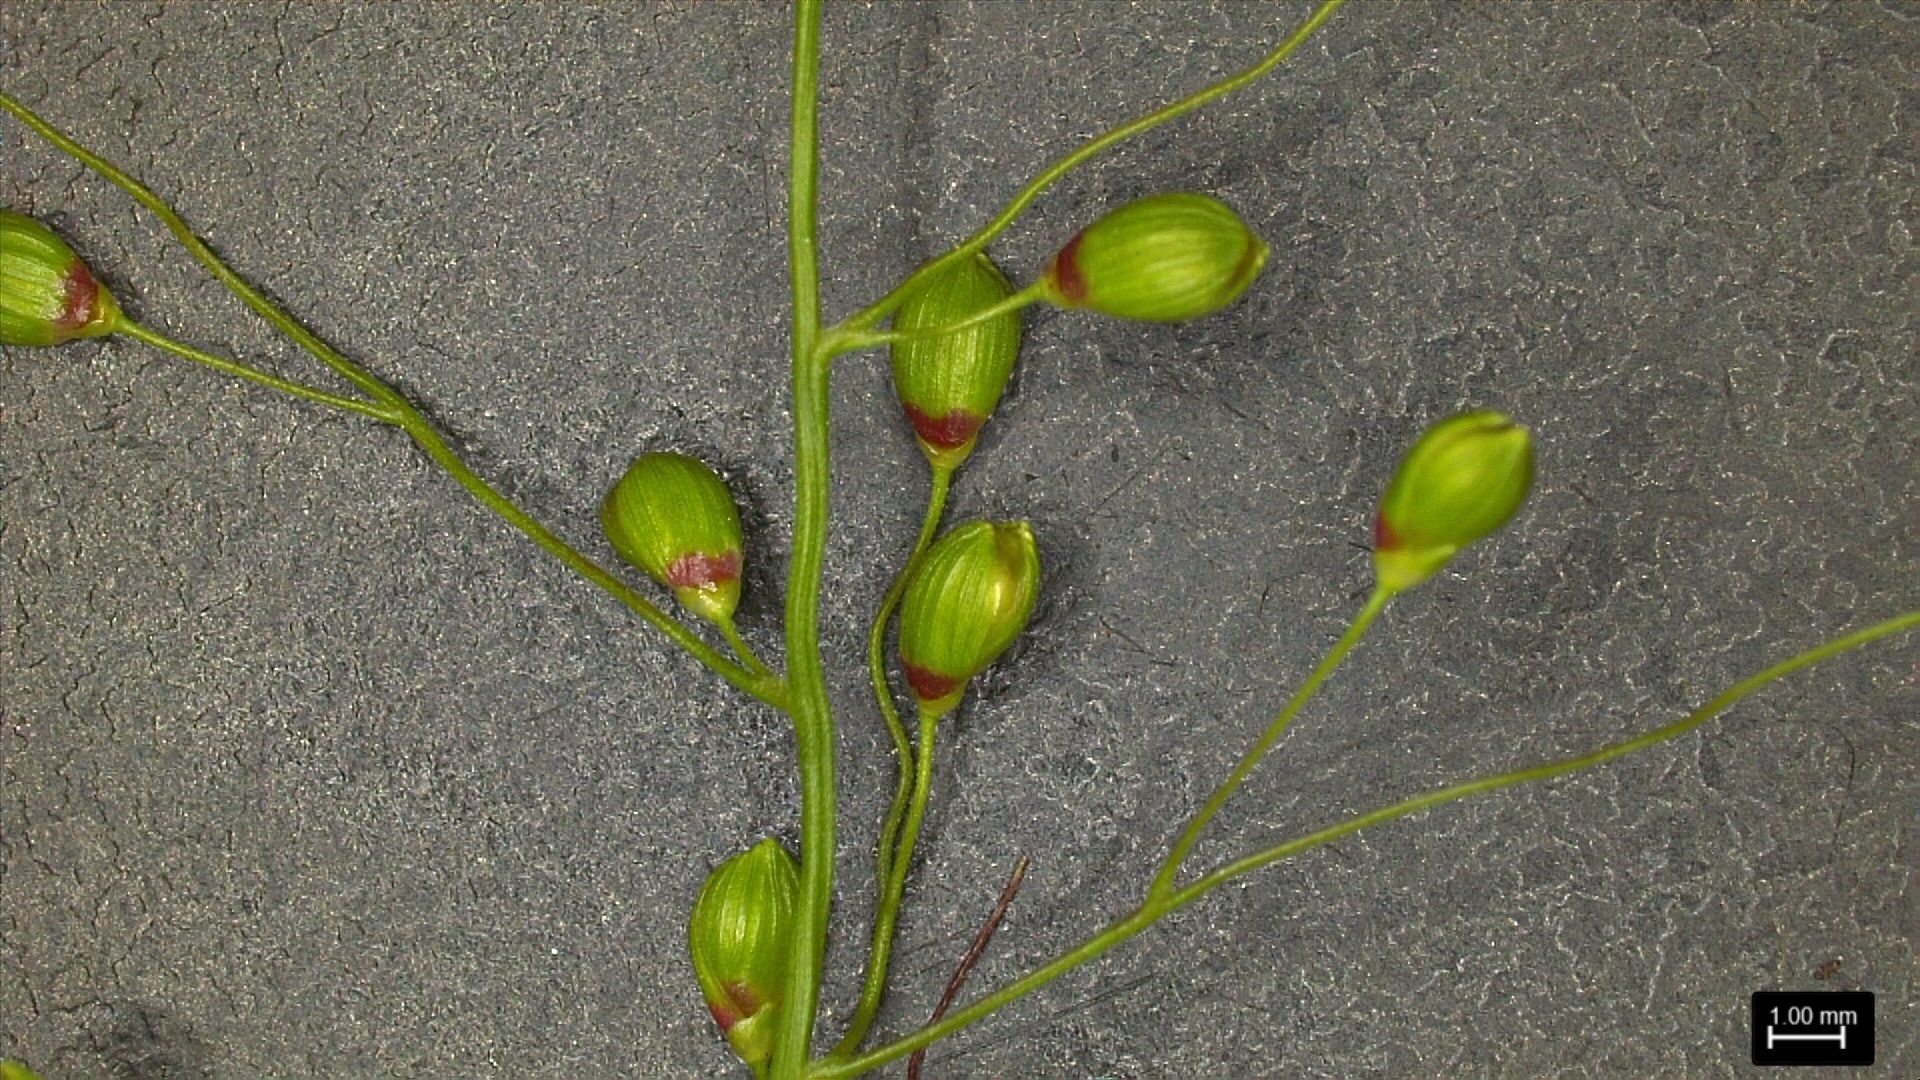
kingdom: Plantae
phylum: Tracheophyta
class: Liliopsida
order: Poales
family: Poaceae
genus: Dichanthelium
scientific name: Dichanthelium scribnerianum
